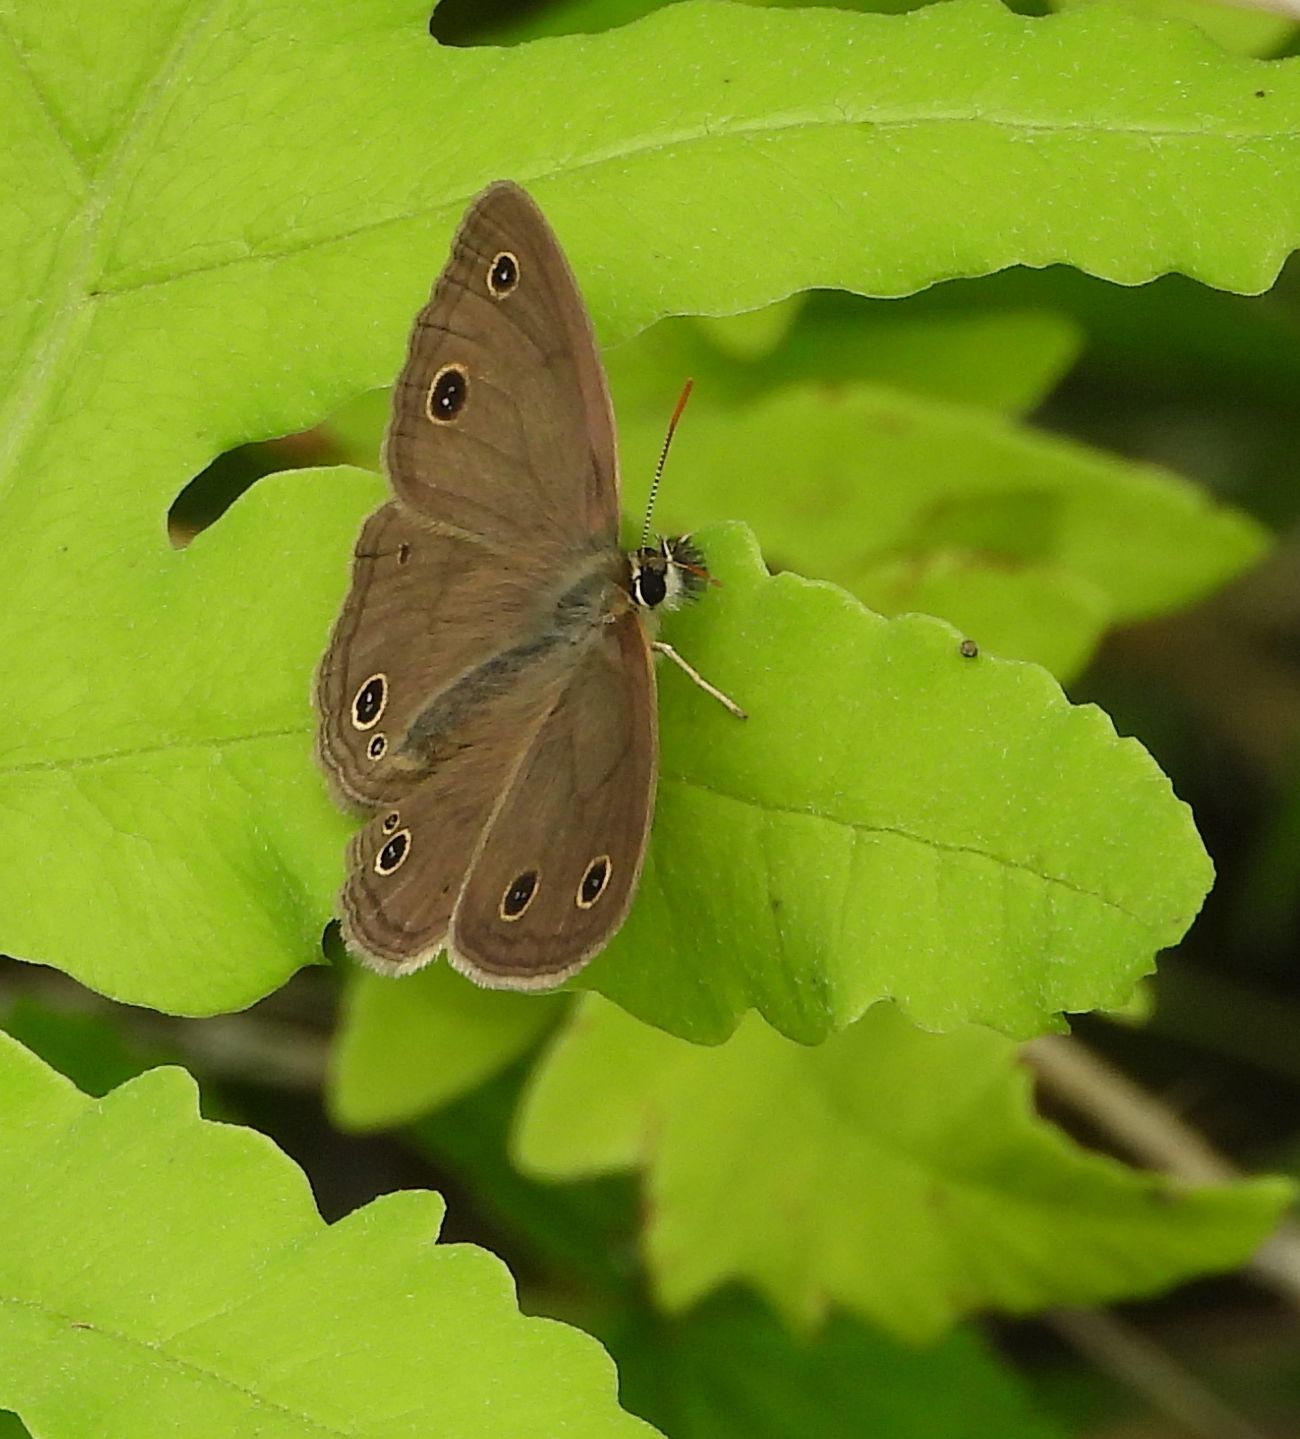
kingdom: Animalia
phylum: Arthropoda
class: Insecta
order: Lepidoptera
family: Nymphalidae
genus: Euptychia
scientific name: Euptychia cymela
